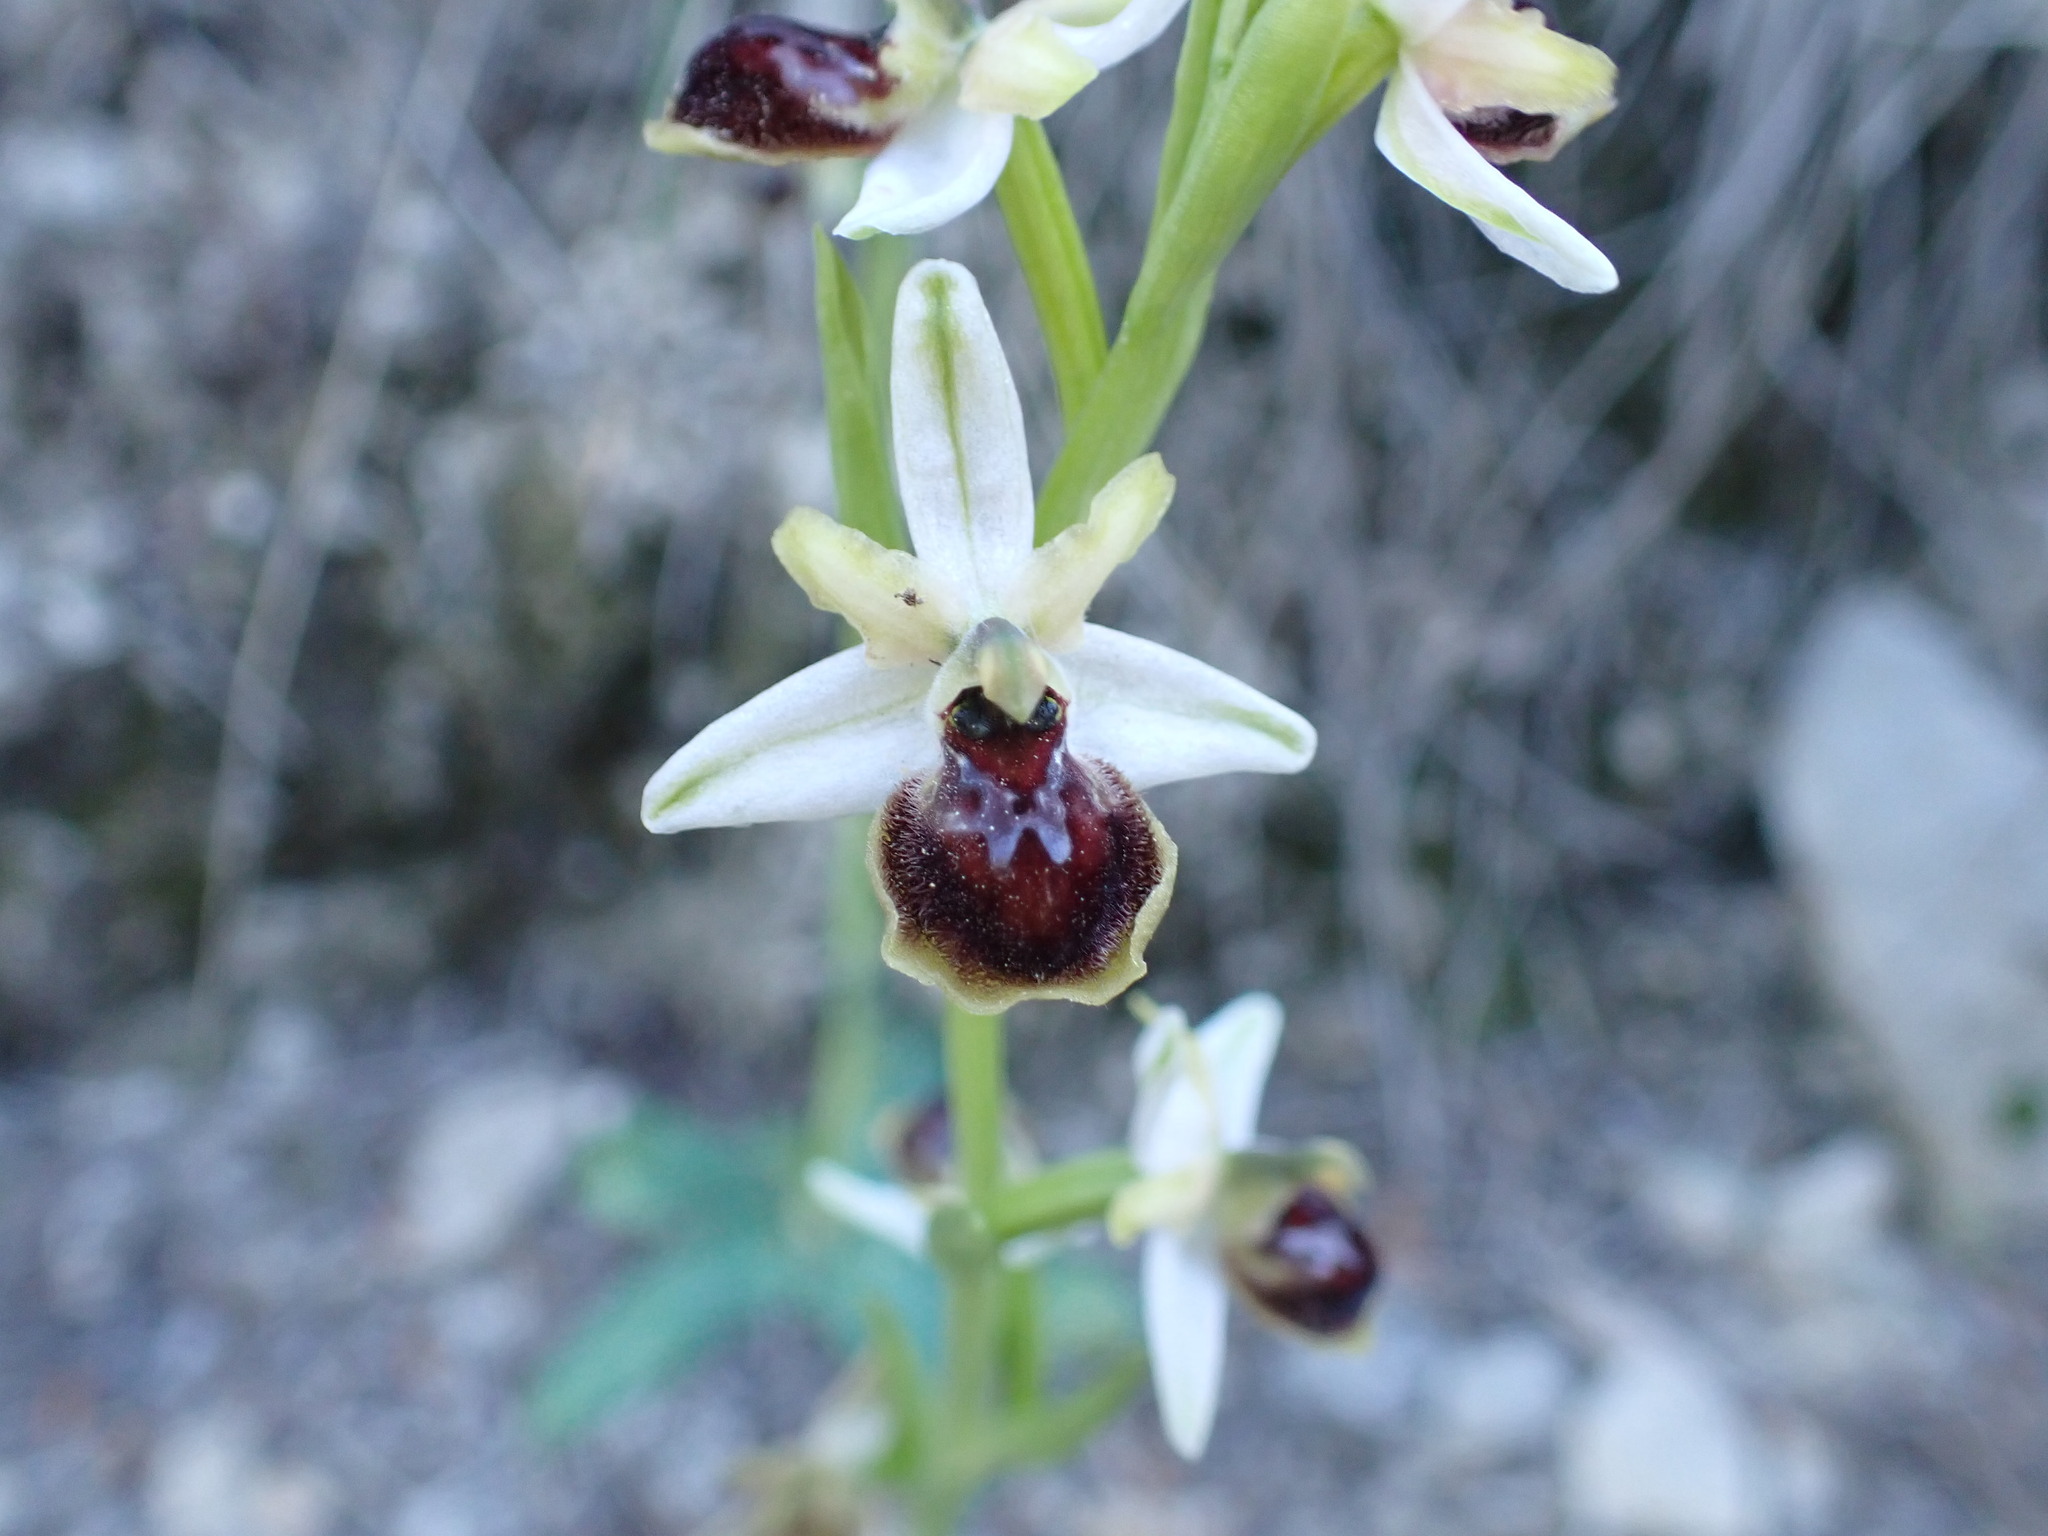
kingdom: Plantae
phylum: Tracheophyta
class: Liliopsida
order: Asparagales
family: Orchidaceae
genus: Ophrys
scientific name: Ophrys araneola
